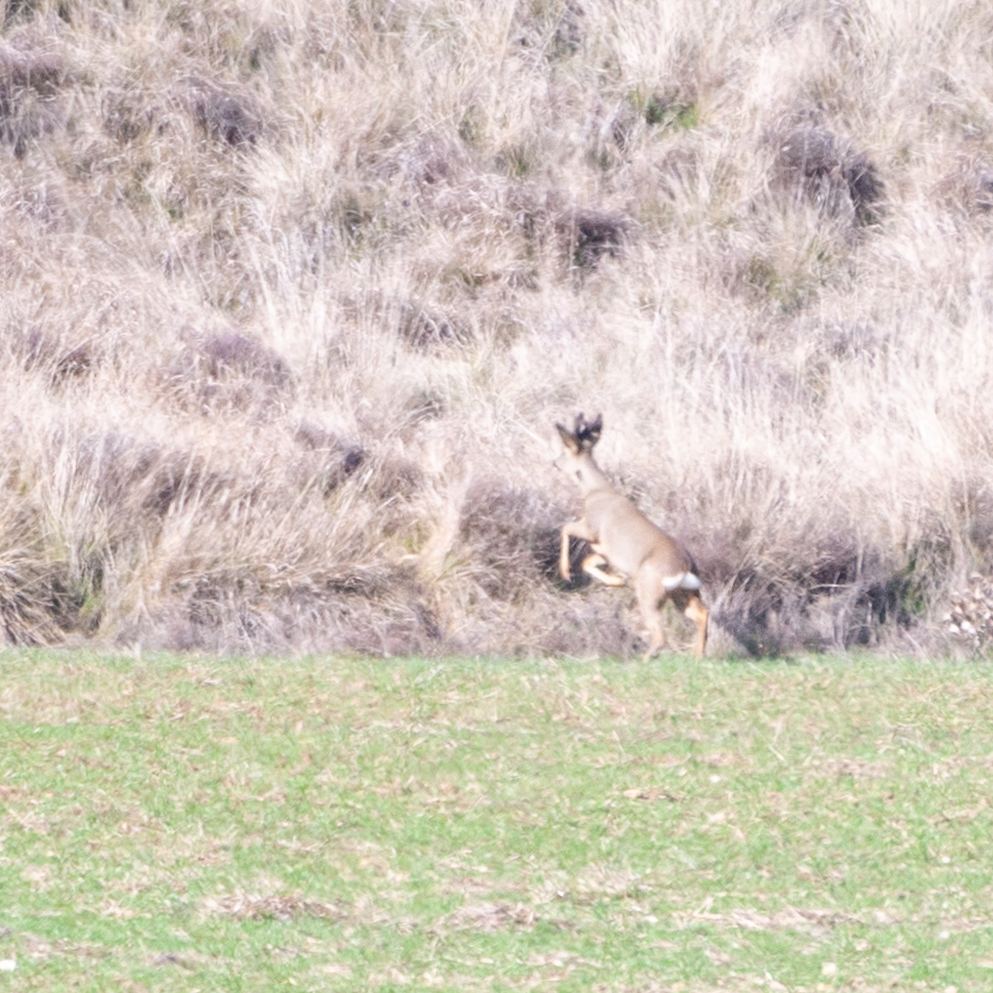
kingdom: Animalia
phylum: Chordata
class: Mammalia
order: Artiodactyla
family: Cervidae
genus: Capreolus
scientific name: Capreolus capreolus
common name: Western roe deer
